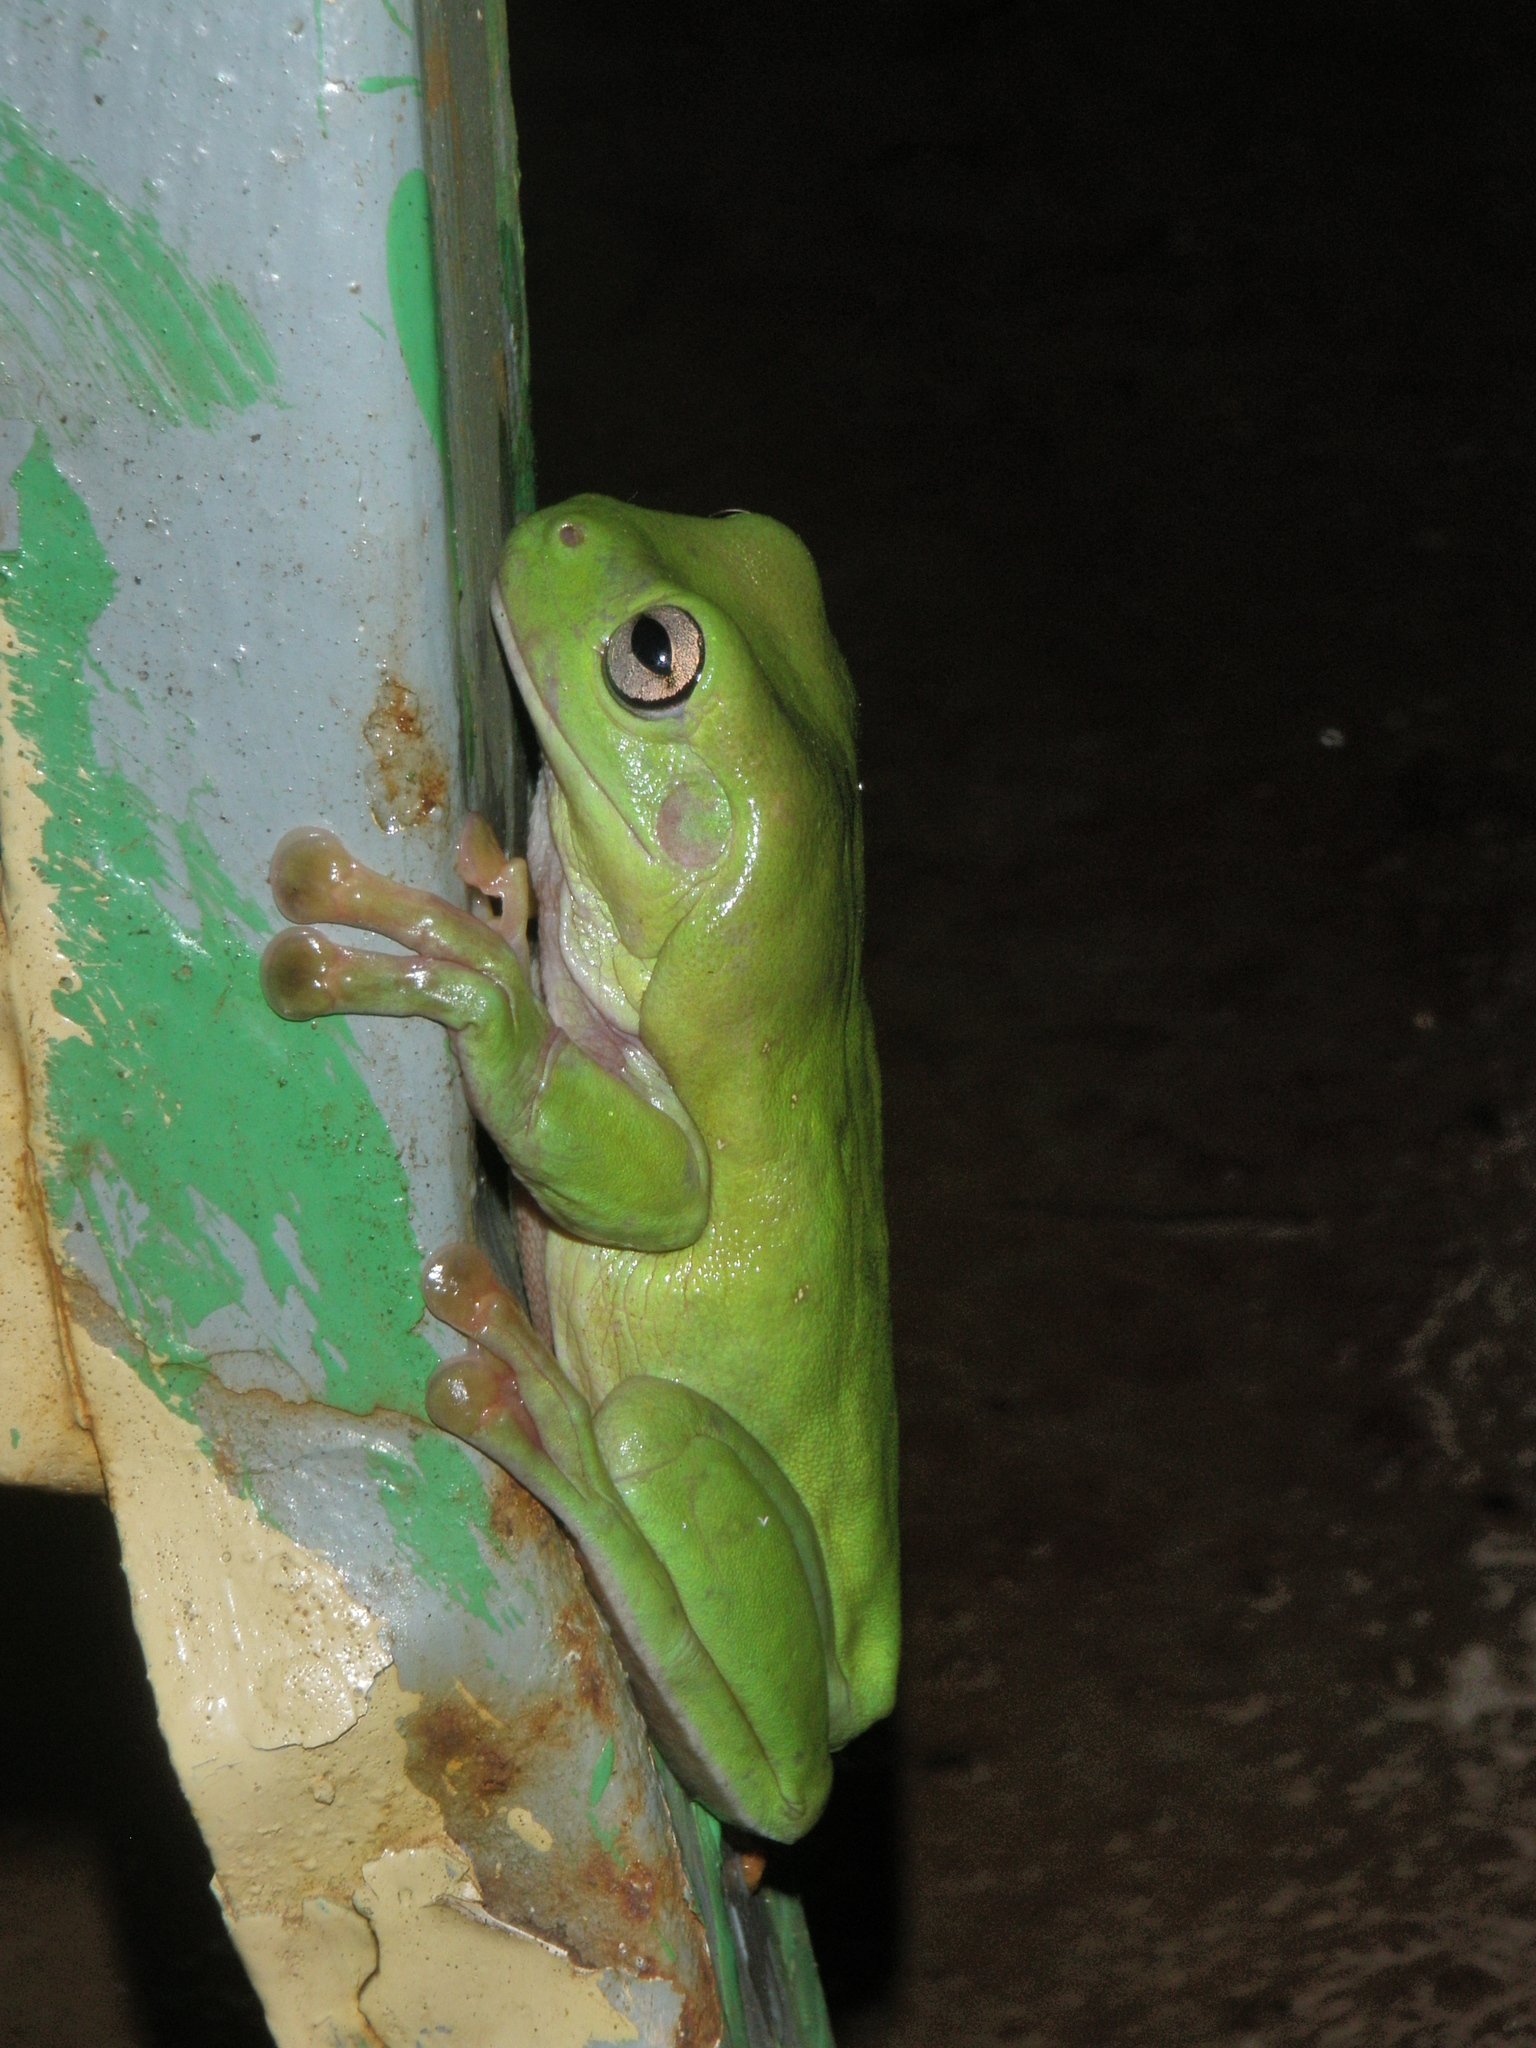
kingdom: Animalia
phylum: Chordata
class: Amphibia
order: Anura
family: Pelodryadidae
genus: Ranoidea
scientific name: Ranoidea caerulea
